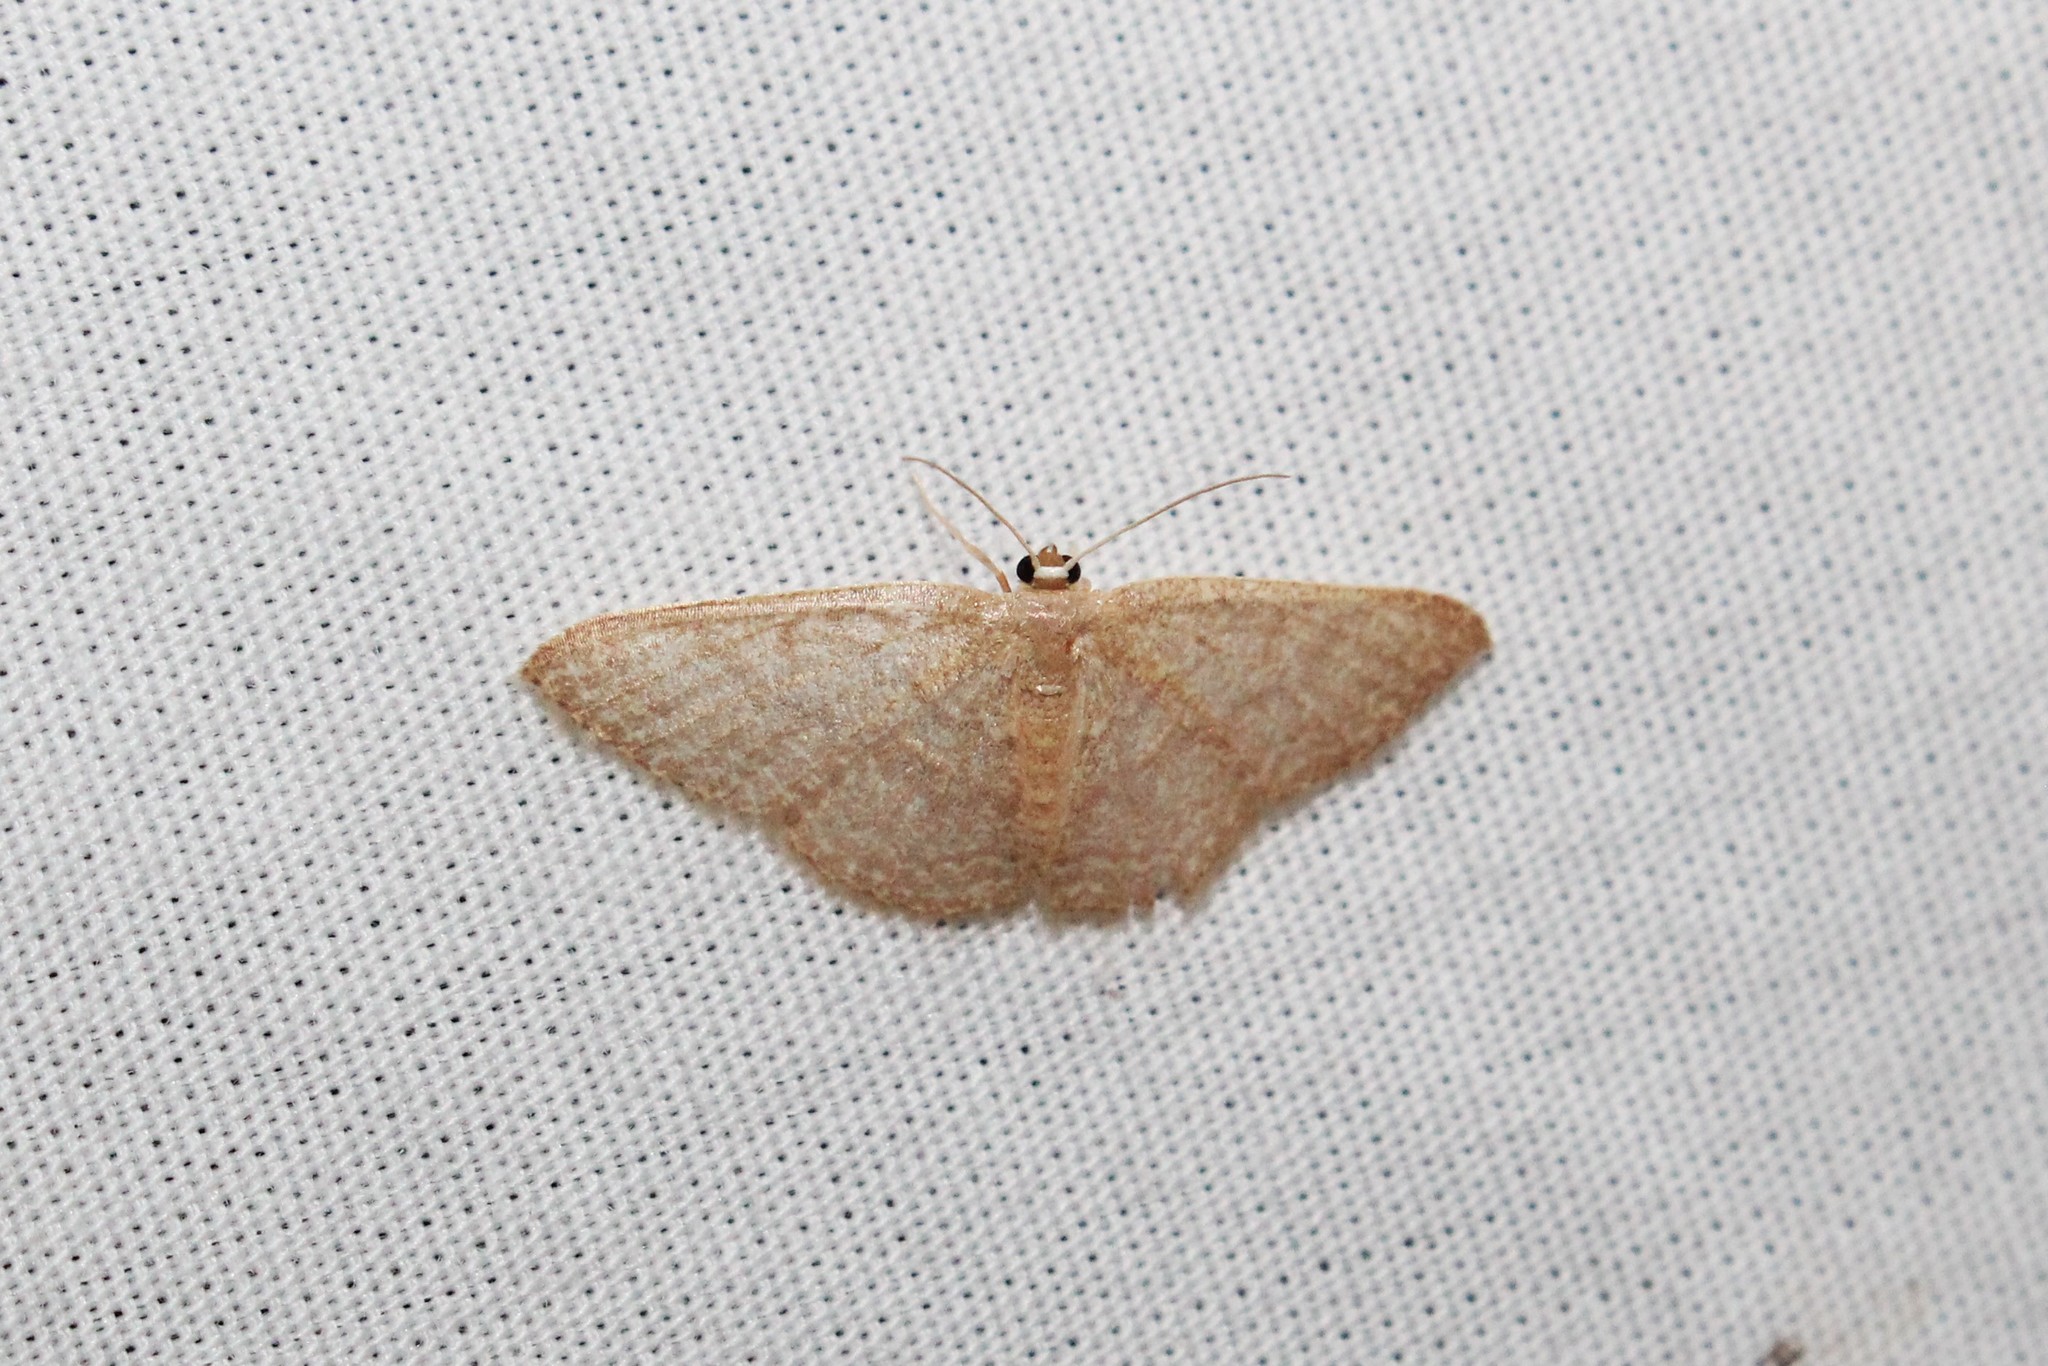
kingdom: Animalia
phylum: Arthropoda
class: Insecta
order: Lepidoptera
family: Geometridae
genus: Pleuroprucha
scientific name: Pleuroprucha insulsaria
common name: Common tan wave
